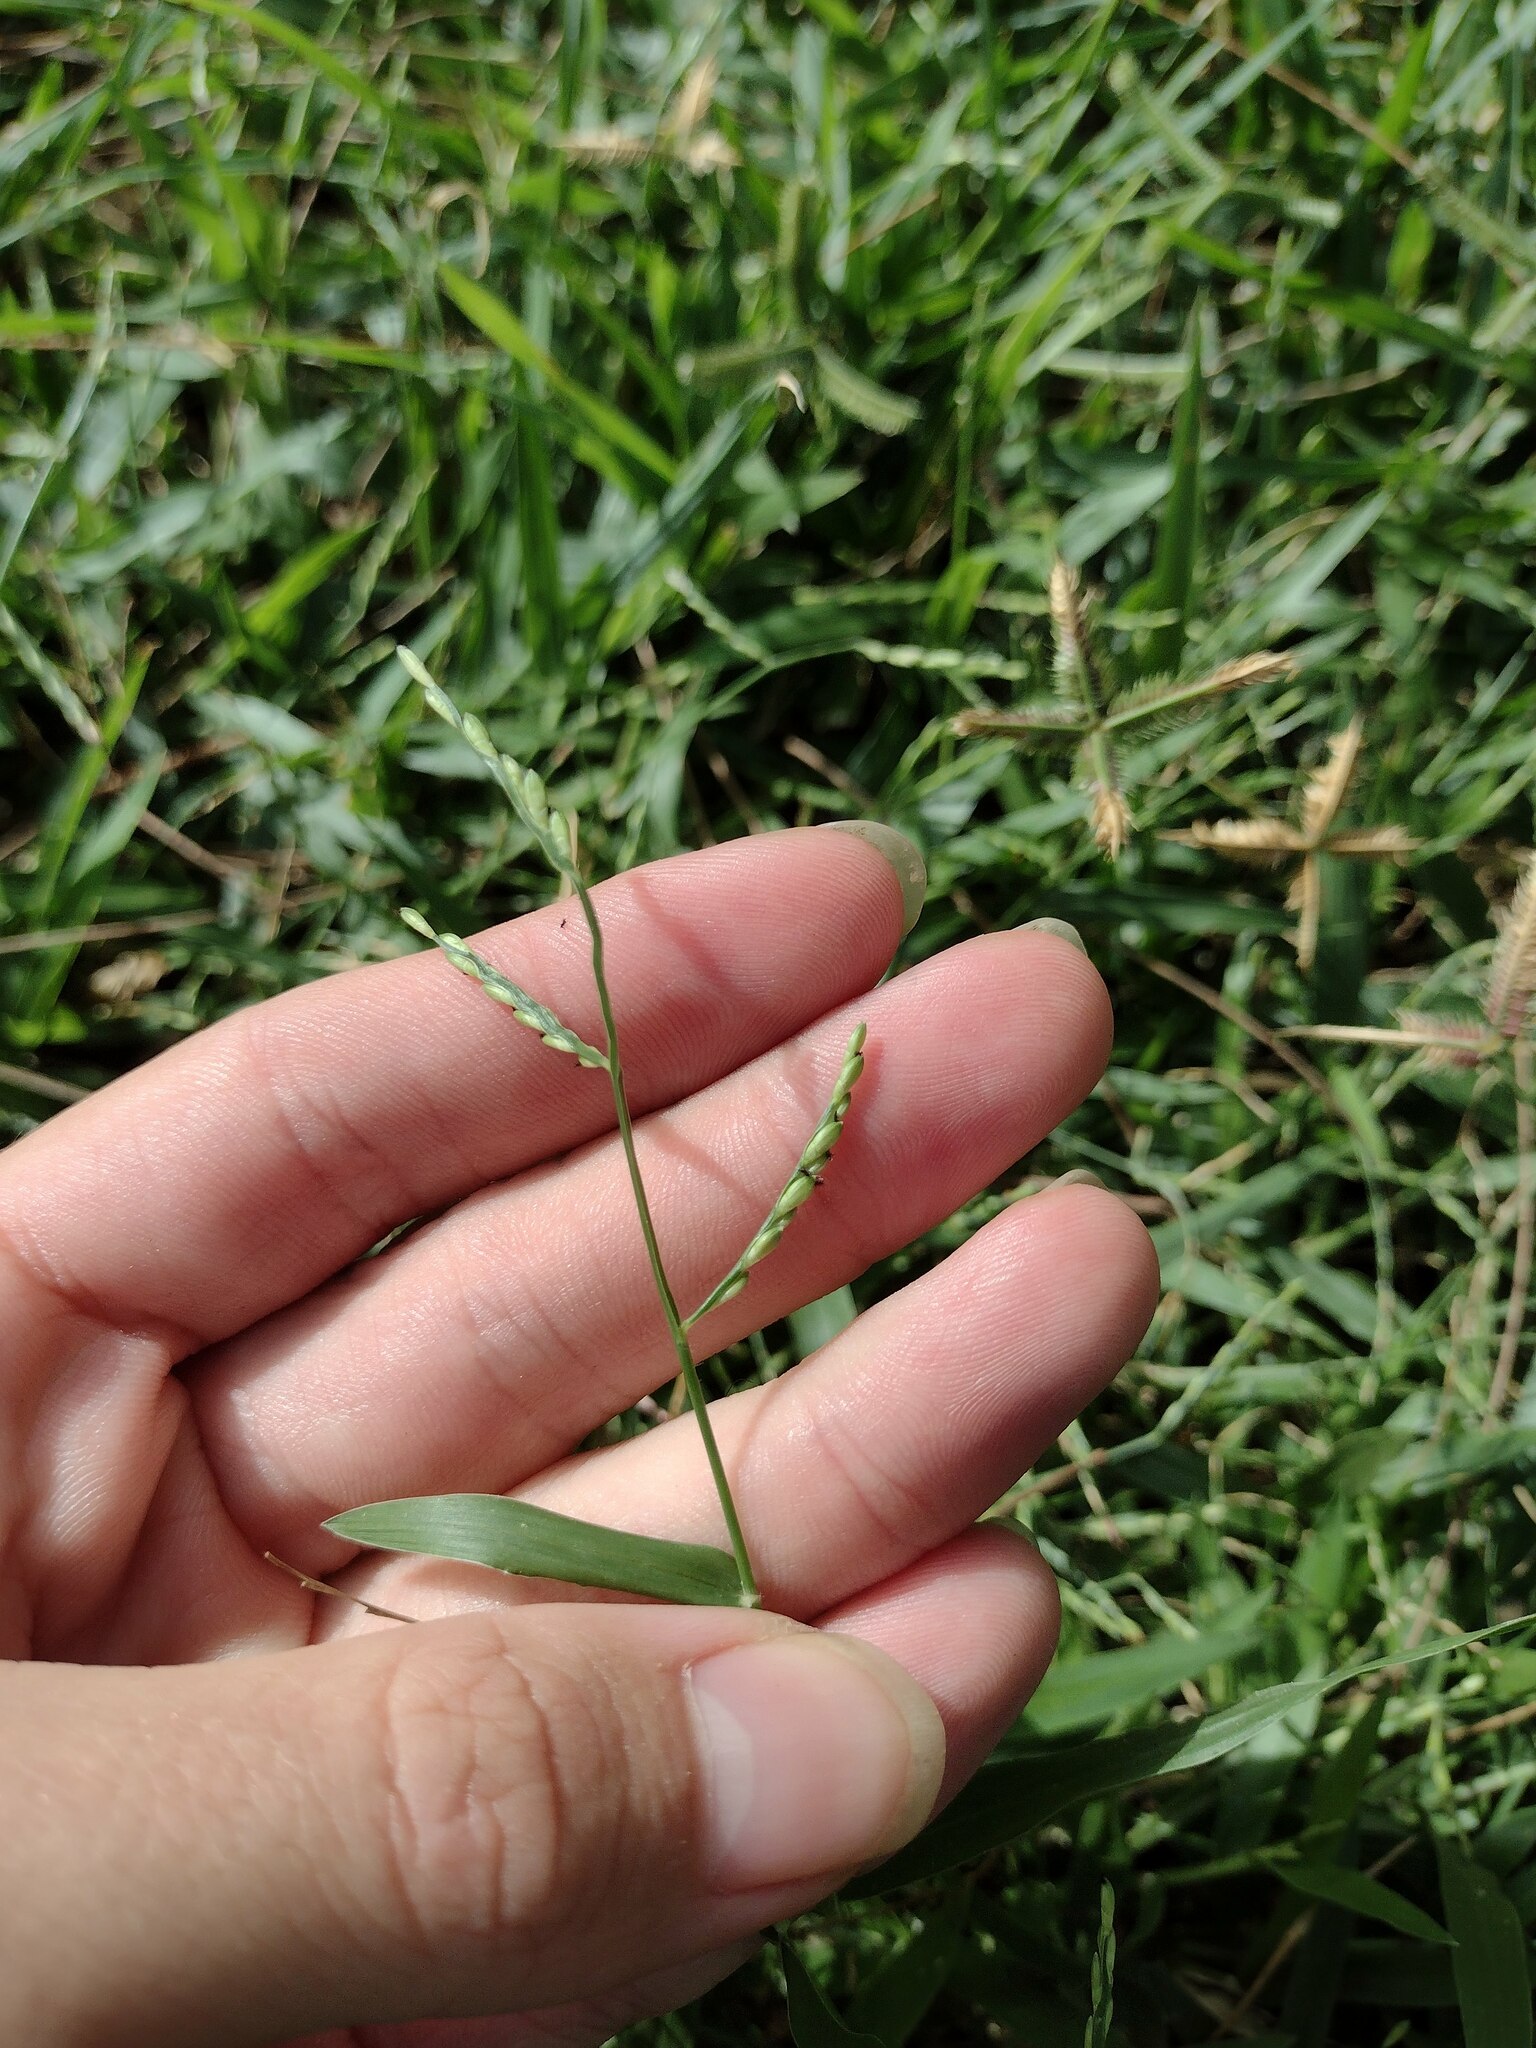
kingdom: Plantae
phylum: Tracheophyta
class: Liliopsida
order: Poales
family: Poaceae
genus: Urochloa
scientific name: Urochloa distachyos
